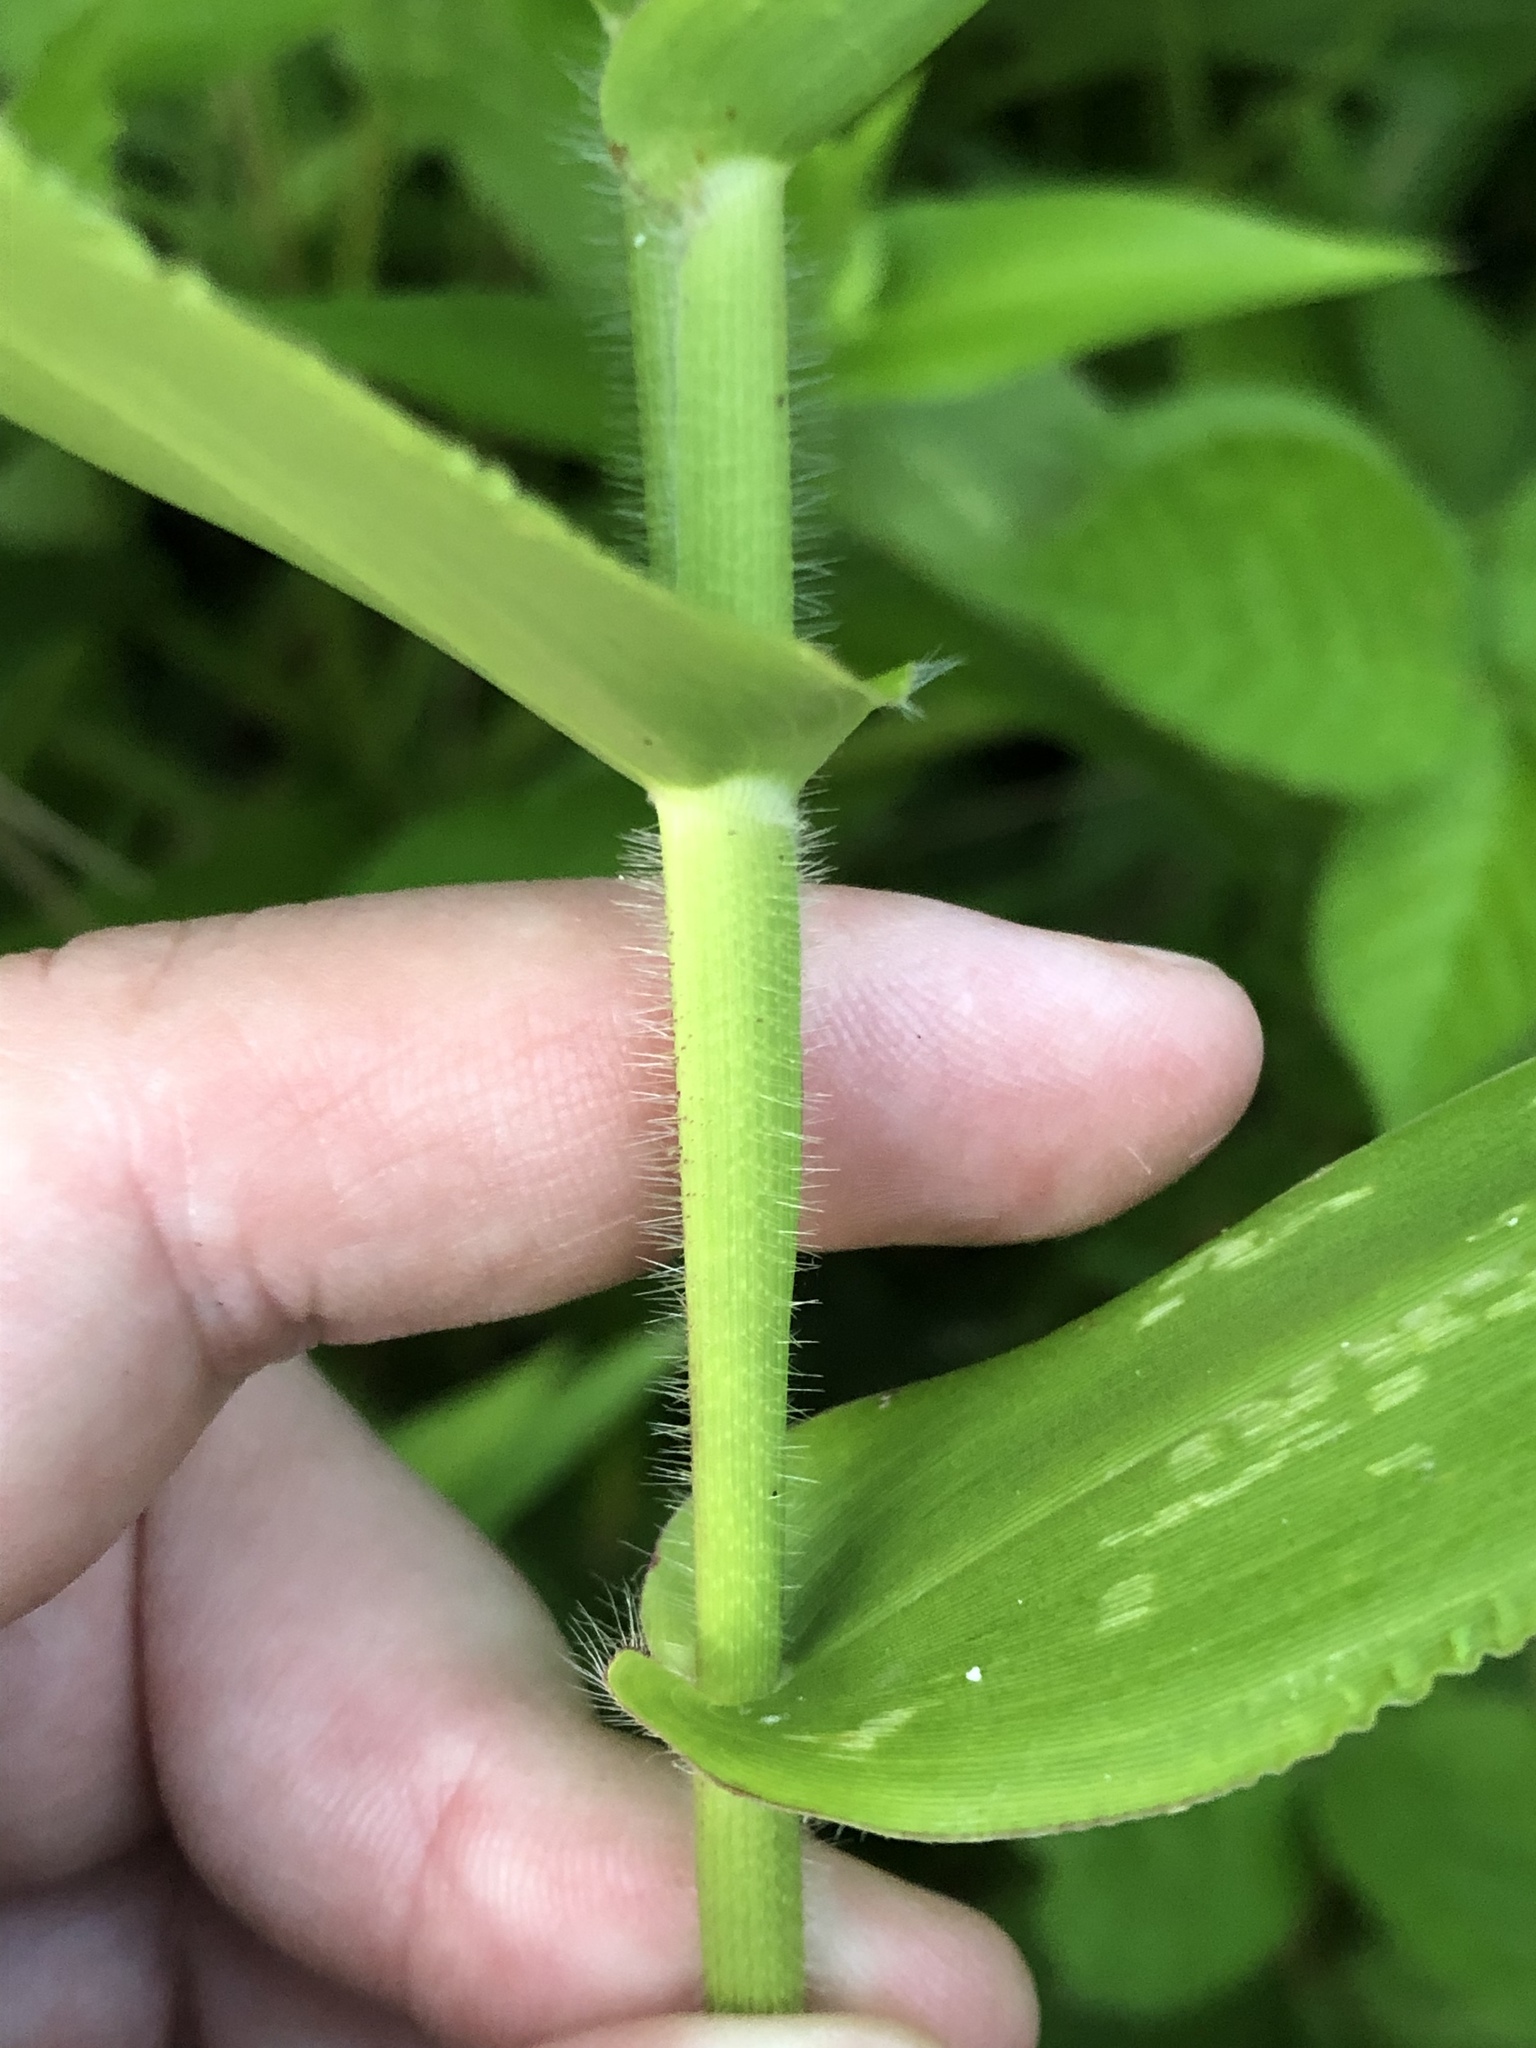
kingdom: Plantae
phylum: Tracheophyta
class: Liliopsida
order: Poales
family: Poaceae
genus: Dichanthelium
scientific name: Dichanthelium clandestinum
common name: Deer-tongue grass
